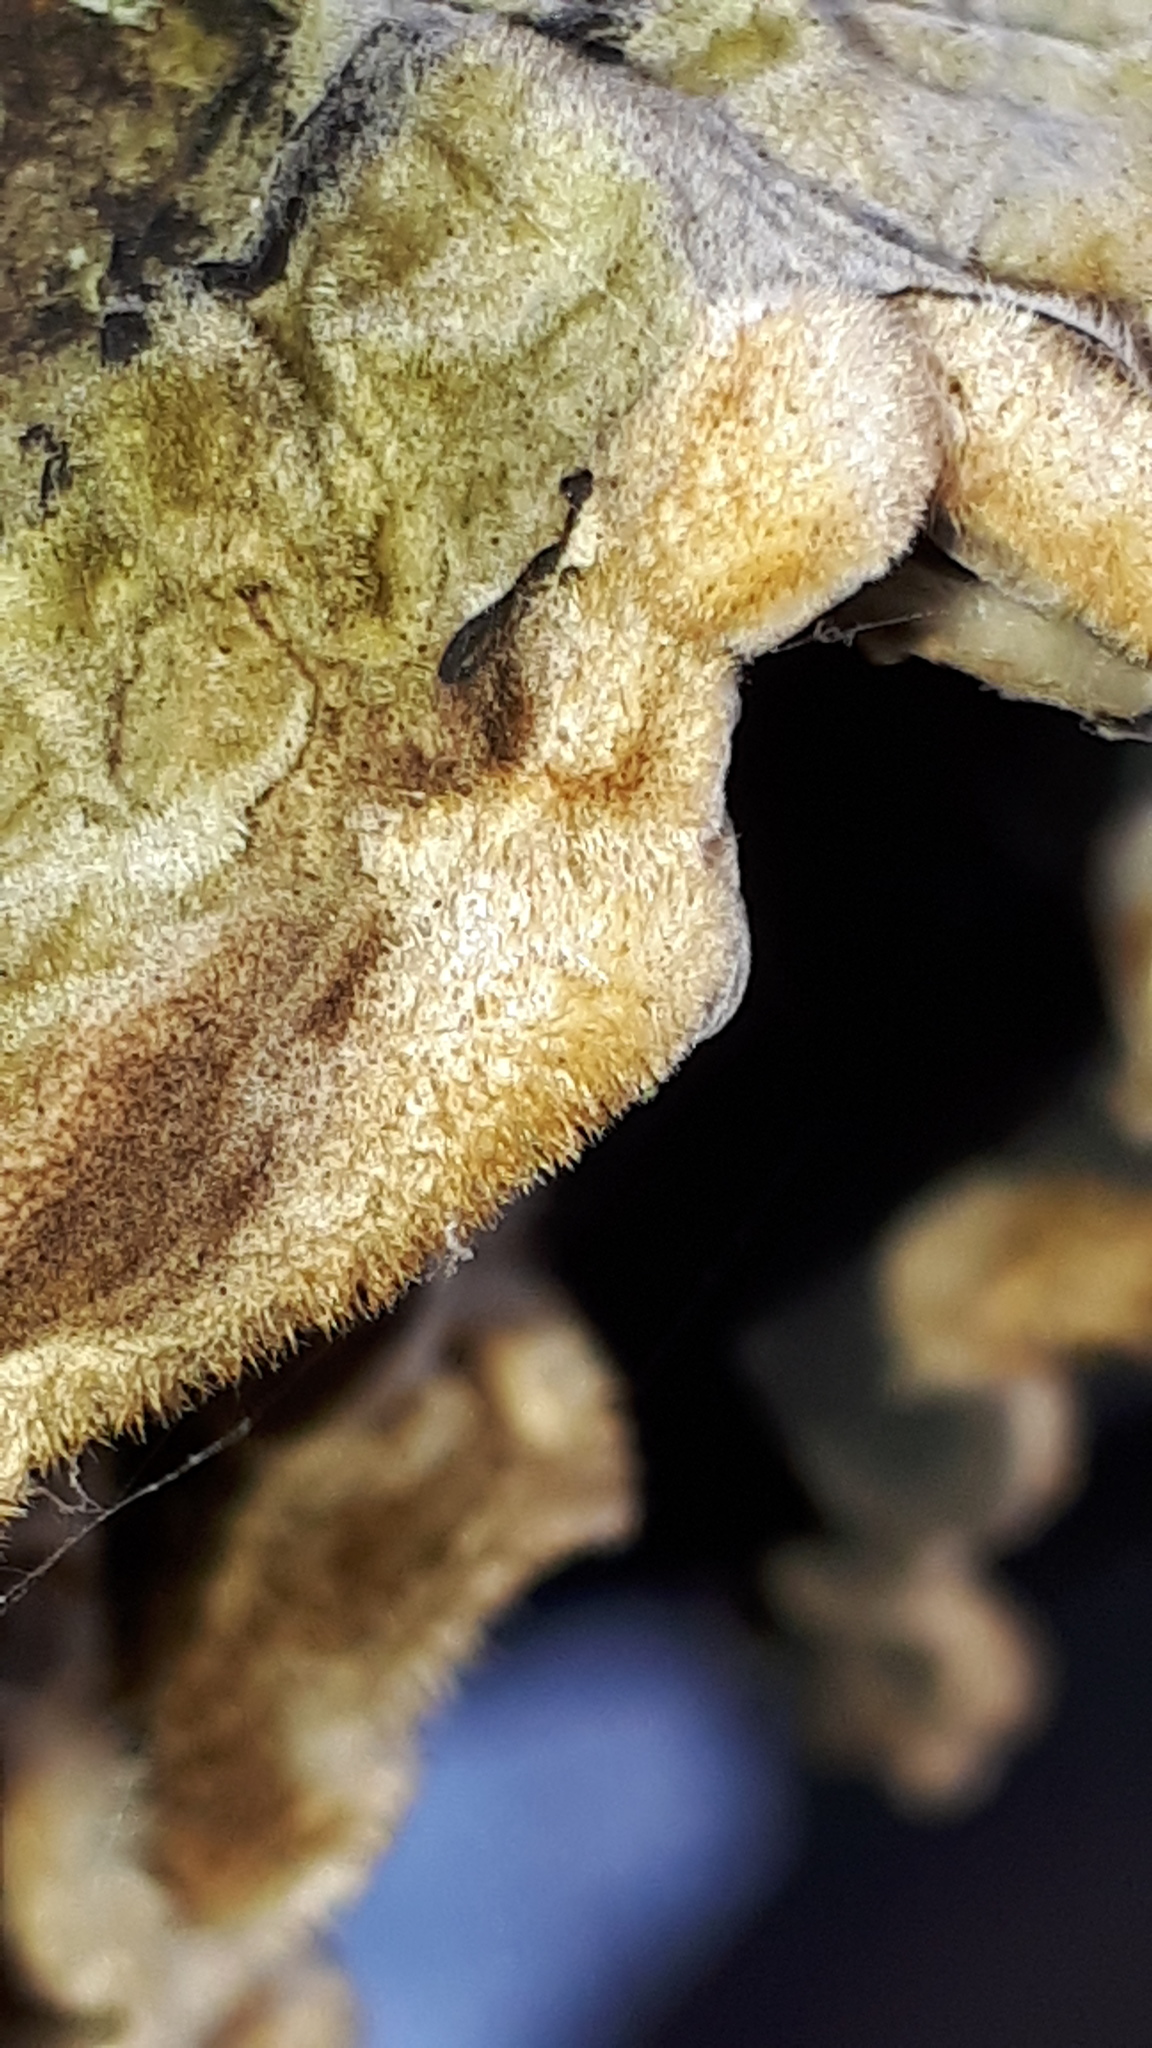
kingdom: Fungi
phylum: Basidiomycota
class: Agaricomycetes
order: Auriculariales
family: Auriculariaceae
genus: Auricularia
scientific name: Auricularia mesenterica
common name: Tripe fungus
